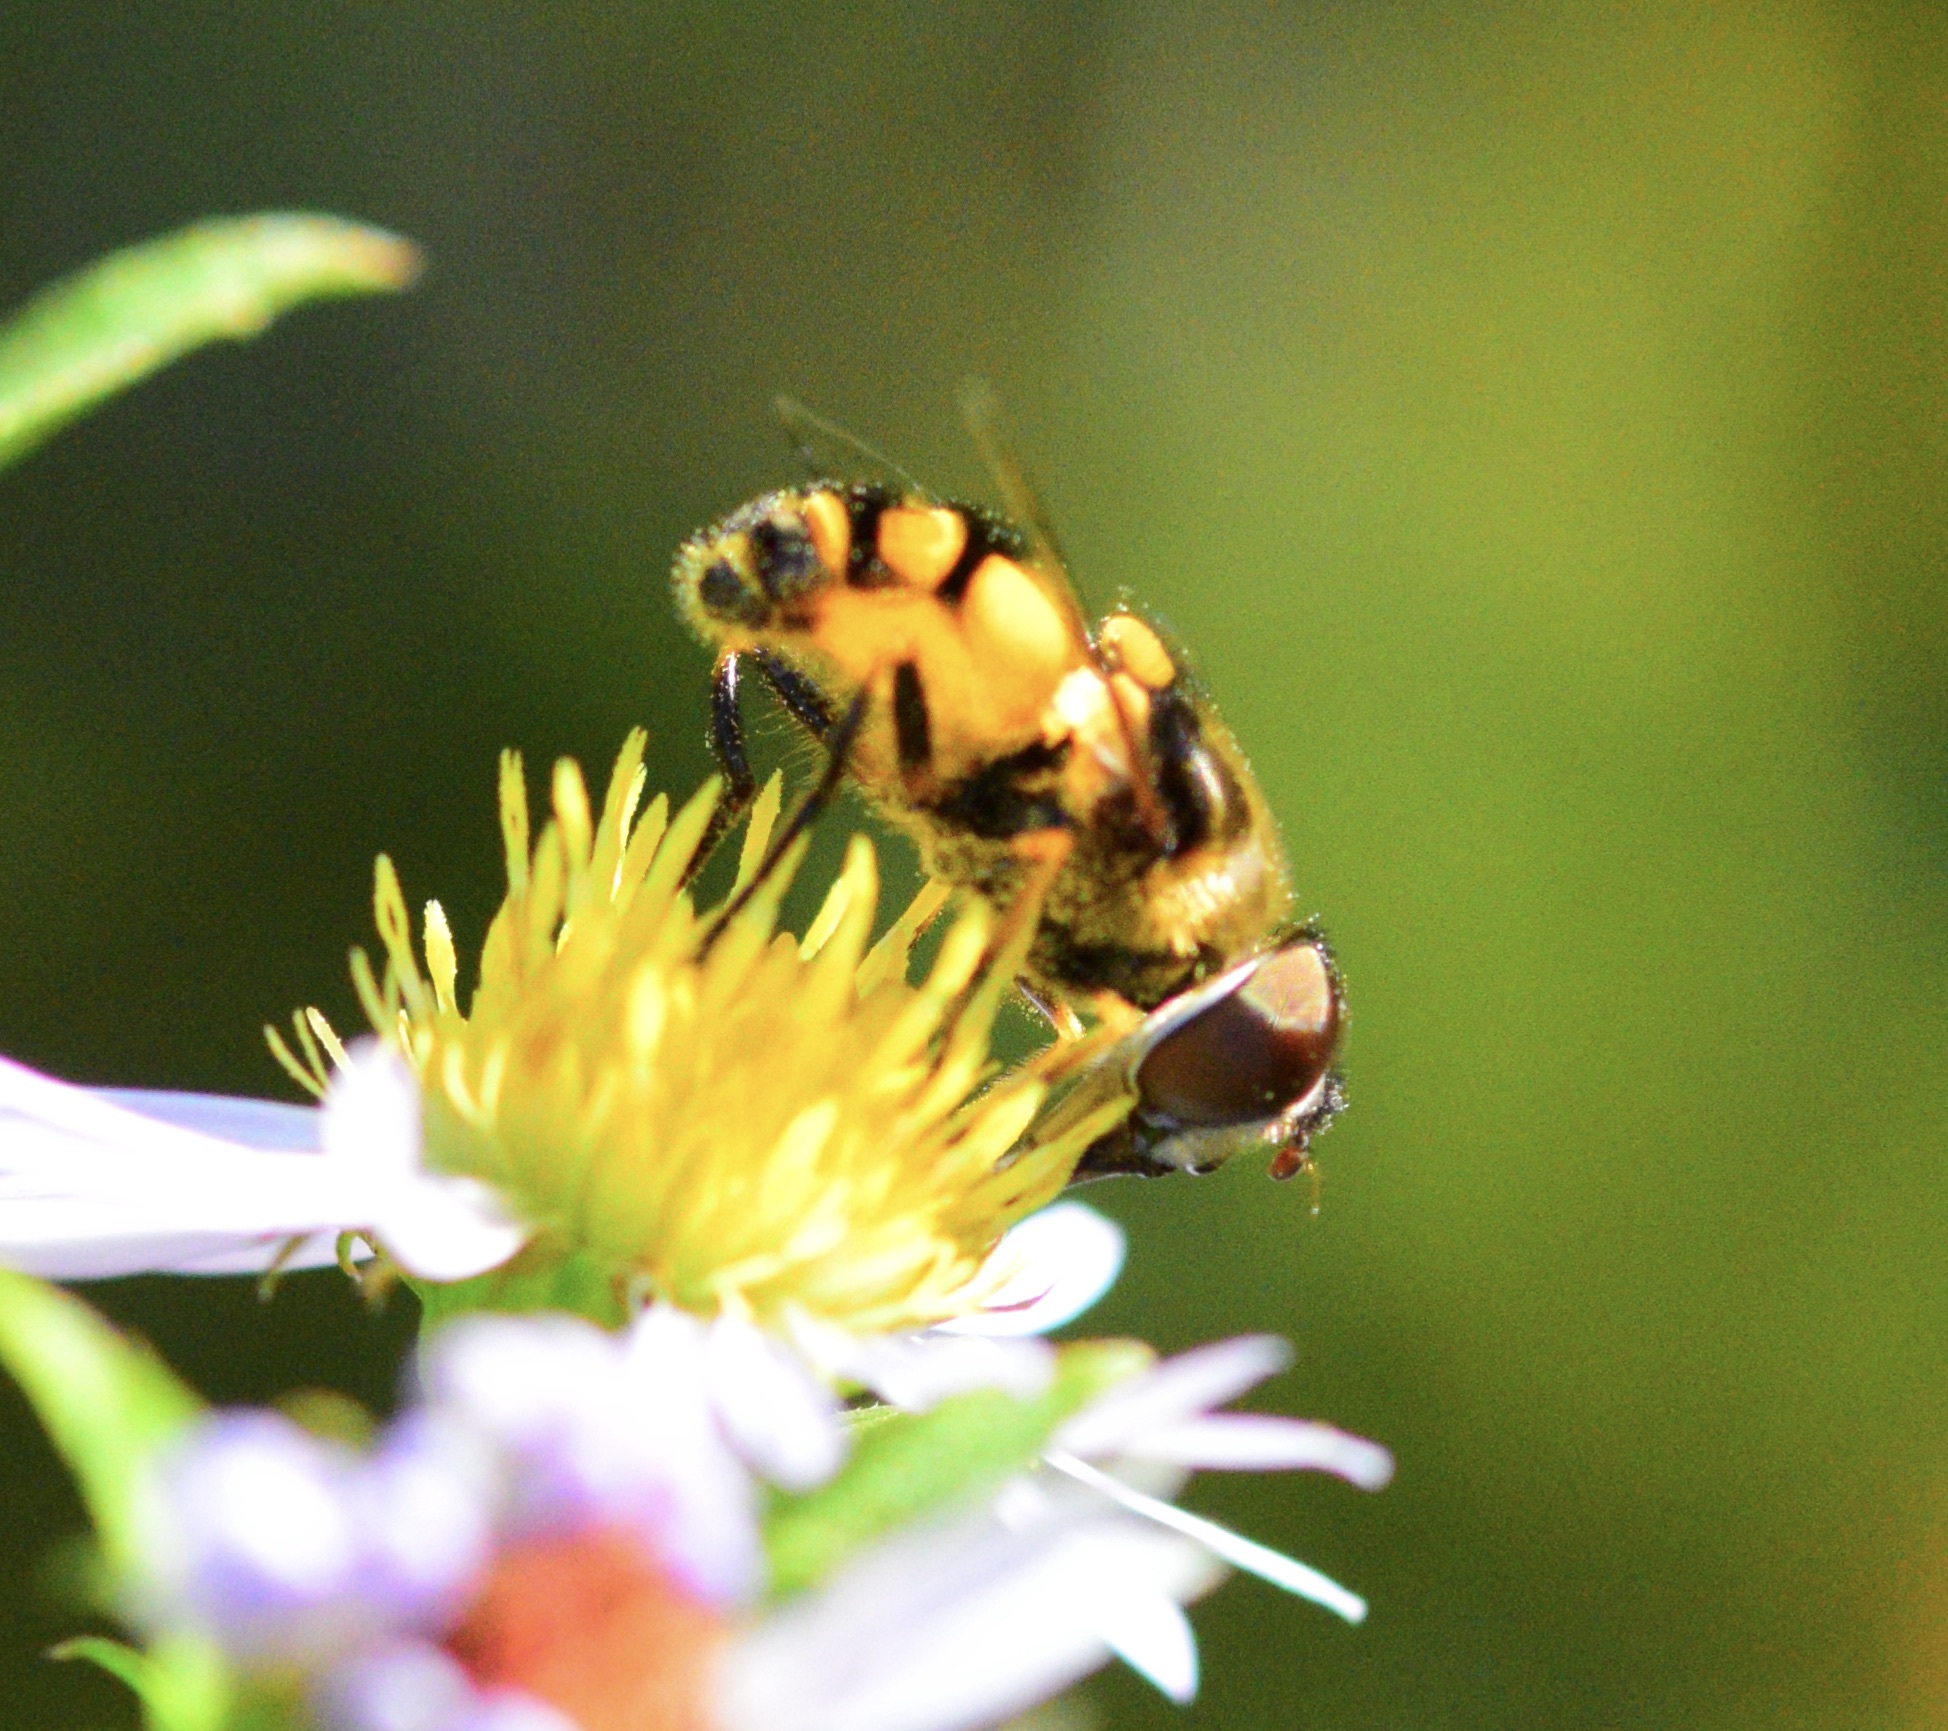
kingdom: Animalia
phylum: Arthropoda
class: Insecta
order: Diptera
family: Syrphidae
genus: Eristalis
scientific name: Eristalis transversa
